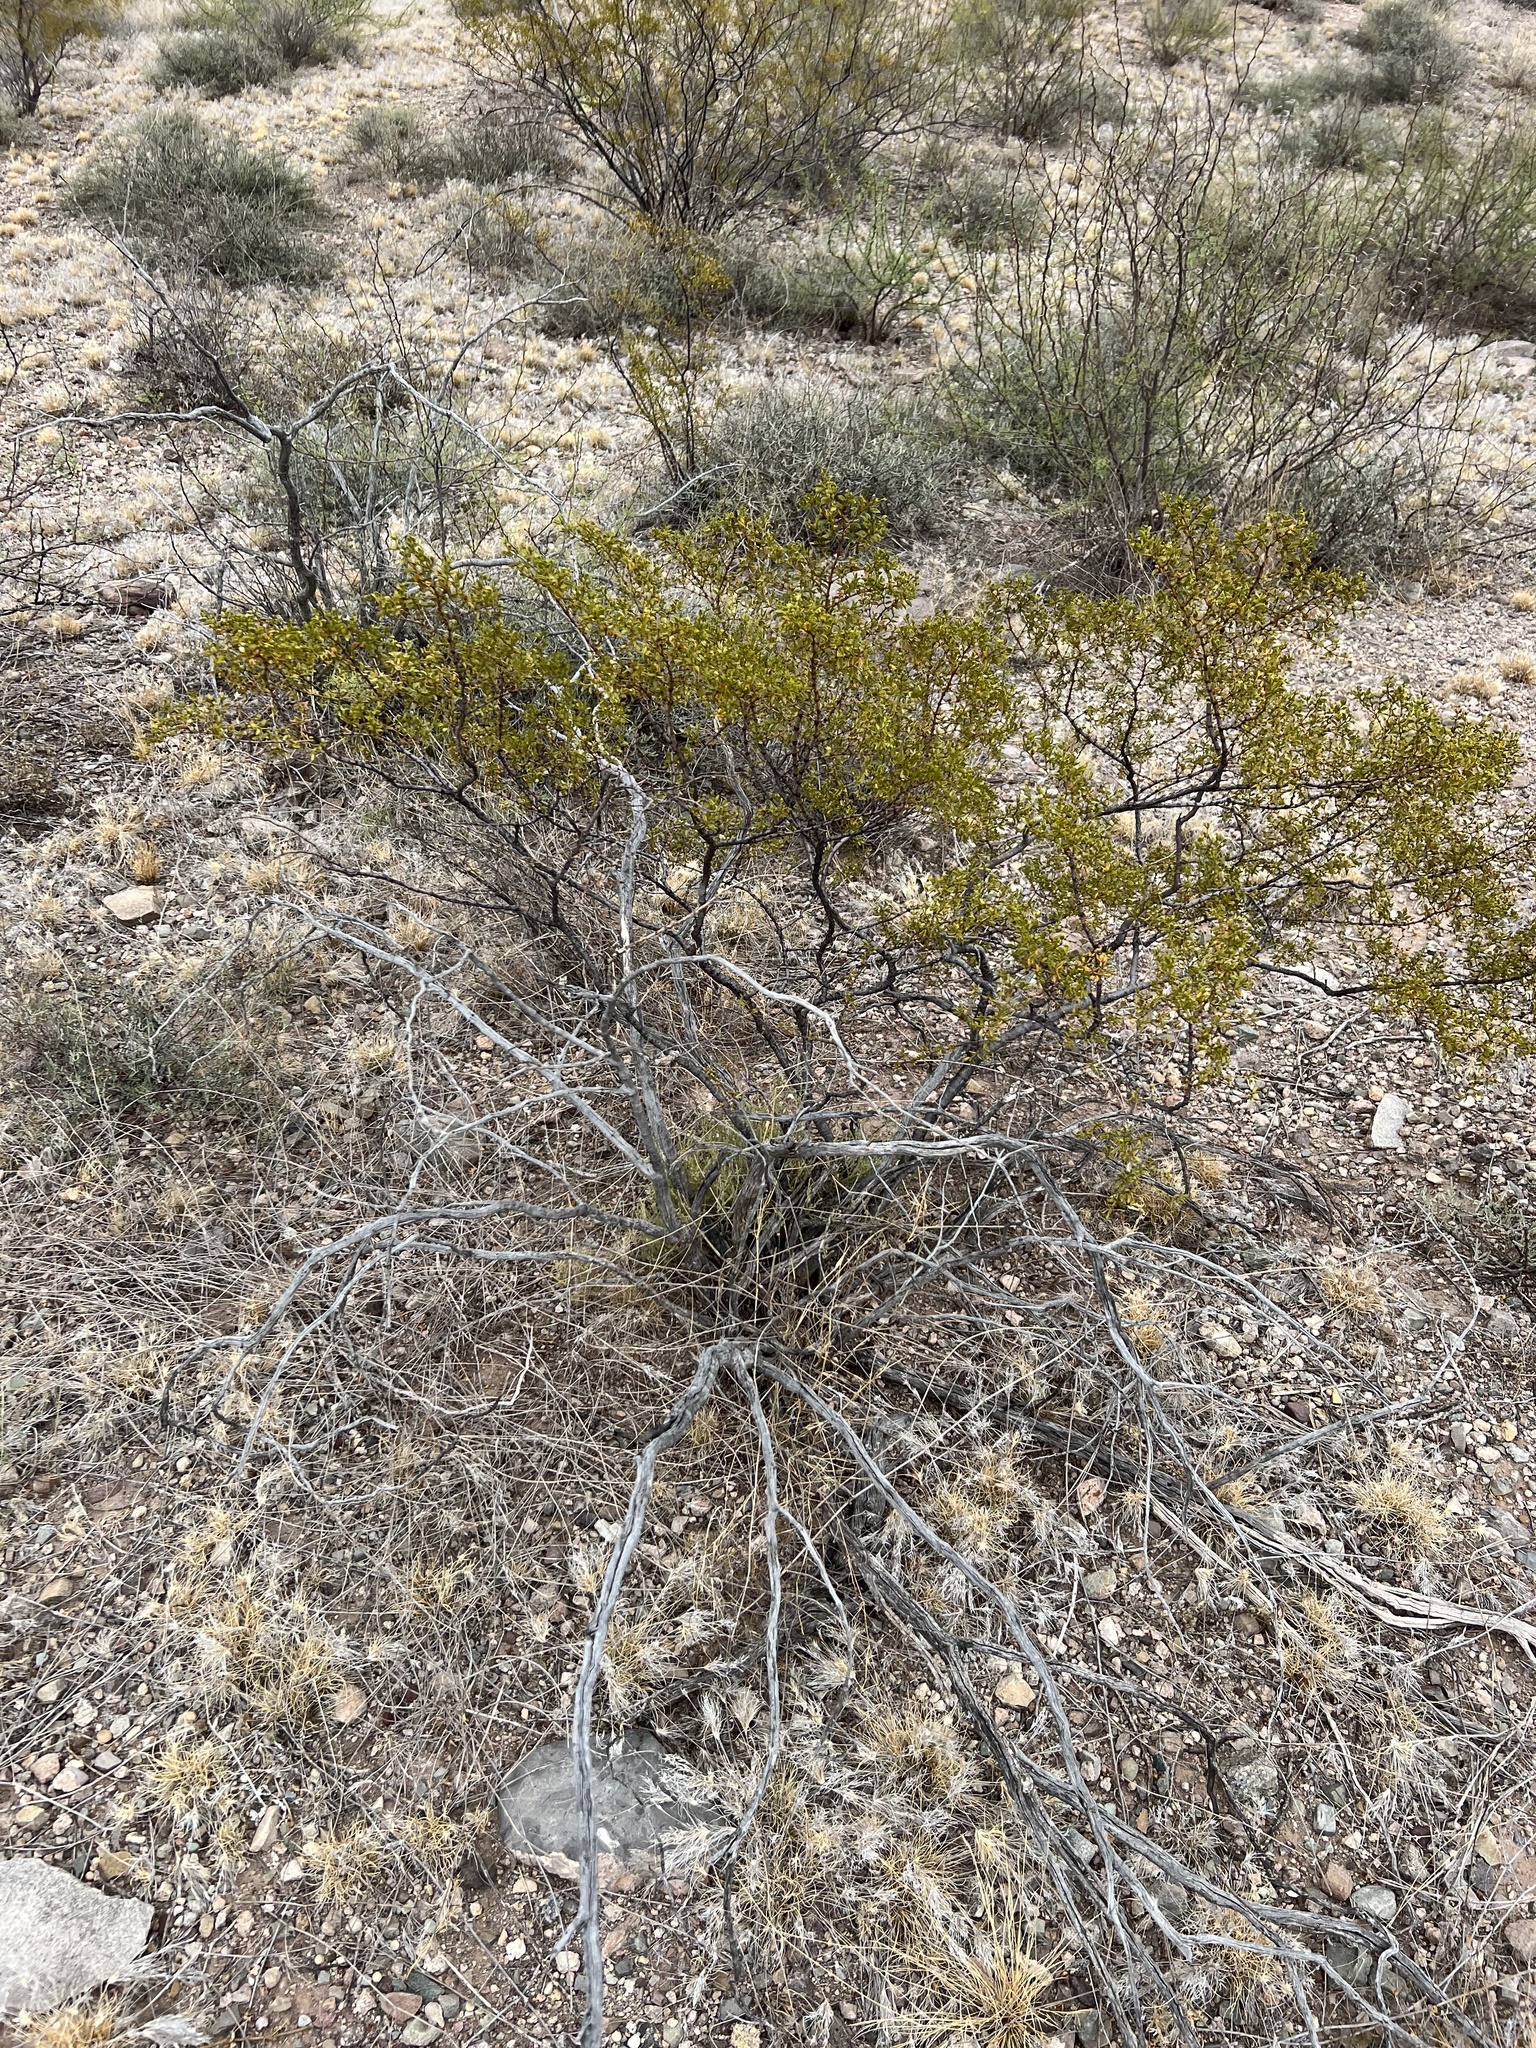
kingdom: Plantae
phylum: Tracheophyta
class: Magnoliopsida
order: Zygophyllales
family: Zygophyllaceae
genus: Larrea
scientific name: Larrea tridentata
